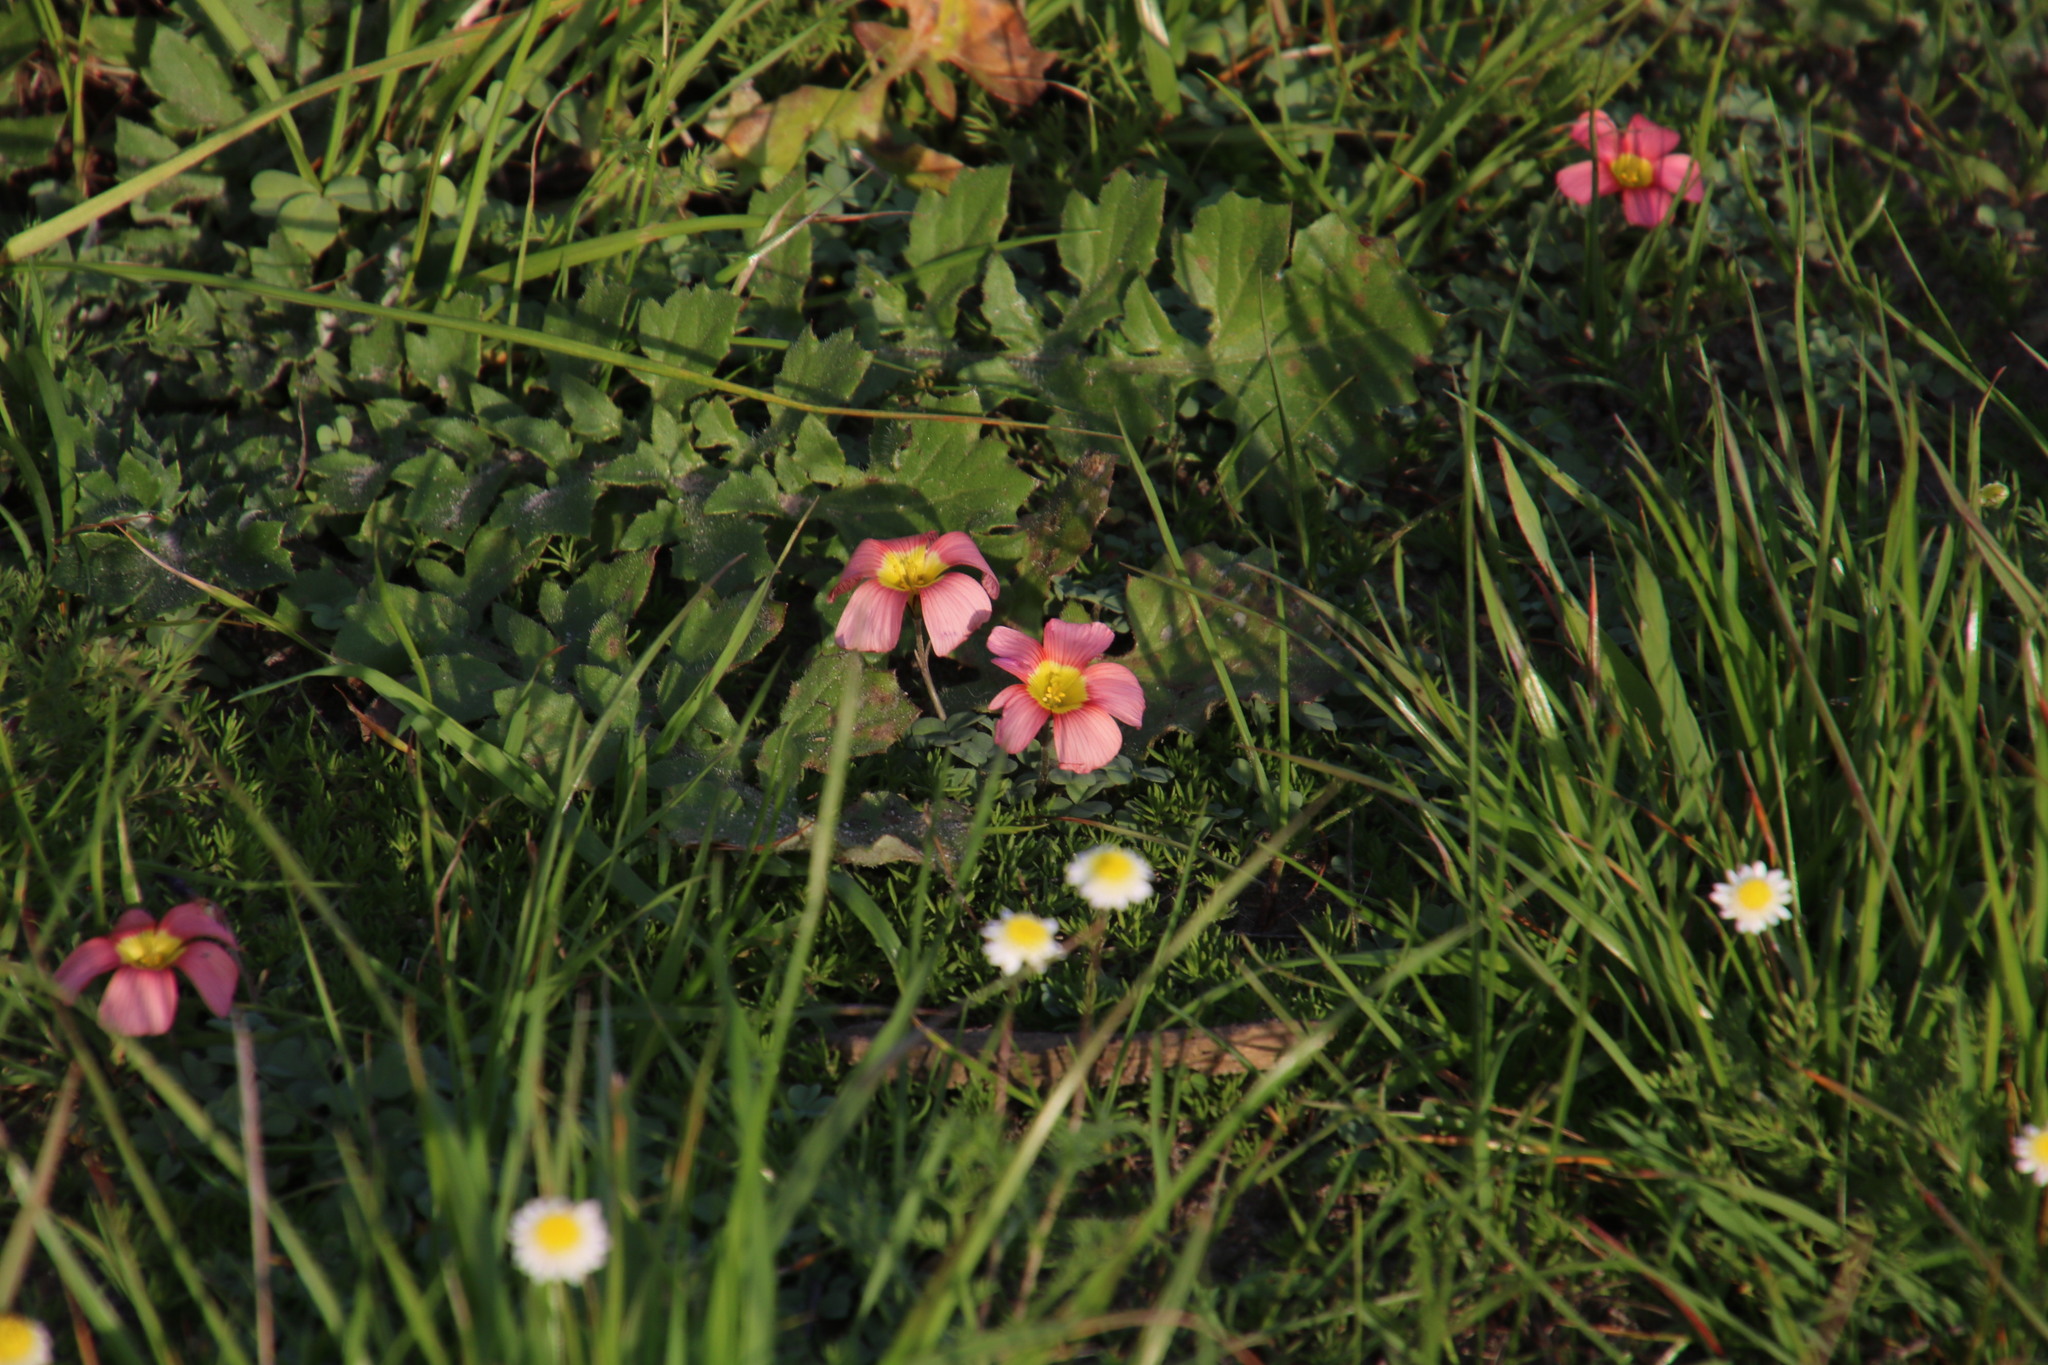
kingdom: Plantae
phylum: Tracheophyta
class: Magnoliopsida
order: Oxalidales
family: Oxalidaceae
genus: Oxalis
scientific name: Oxalis obtusa
